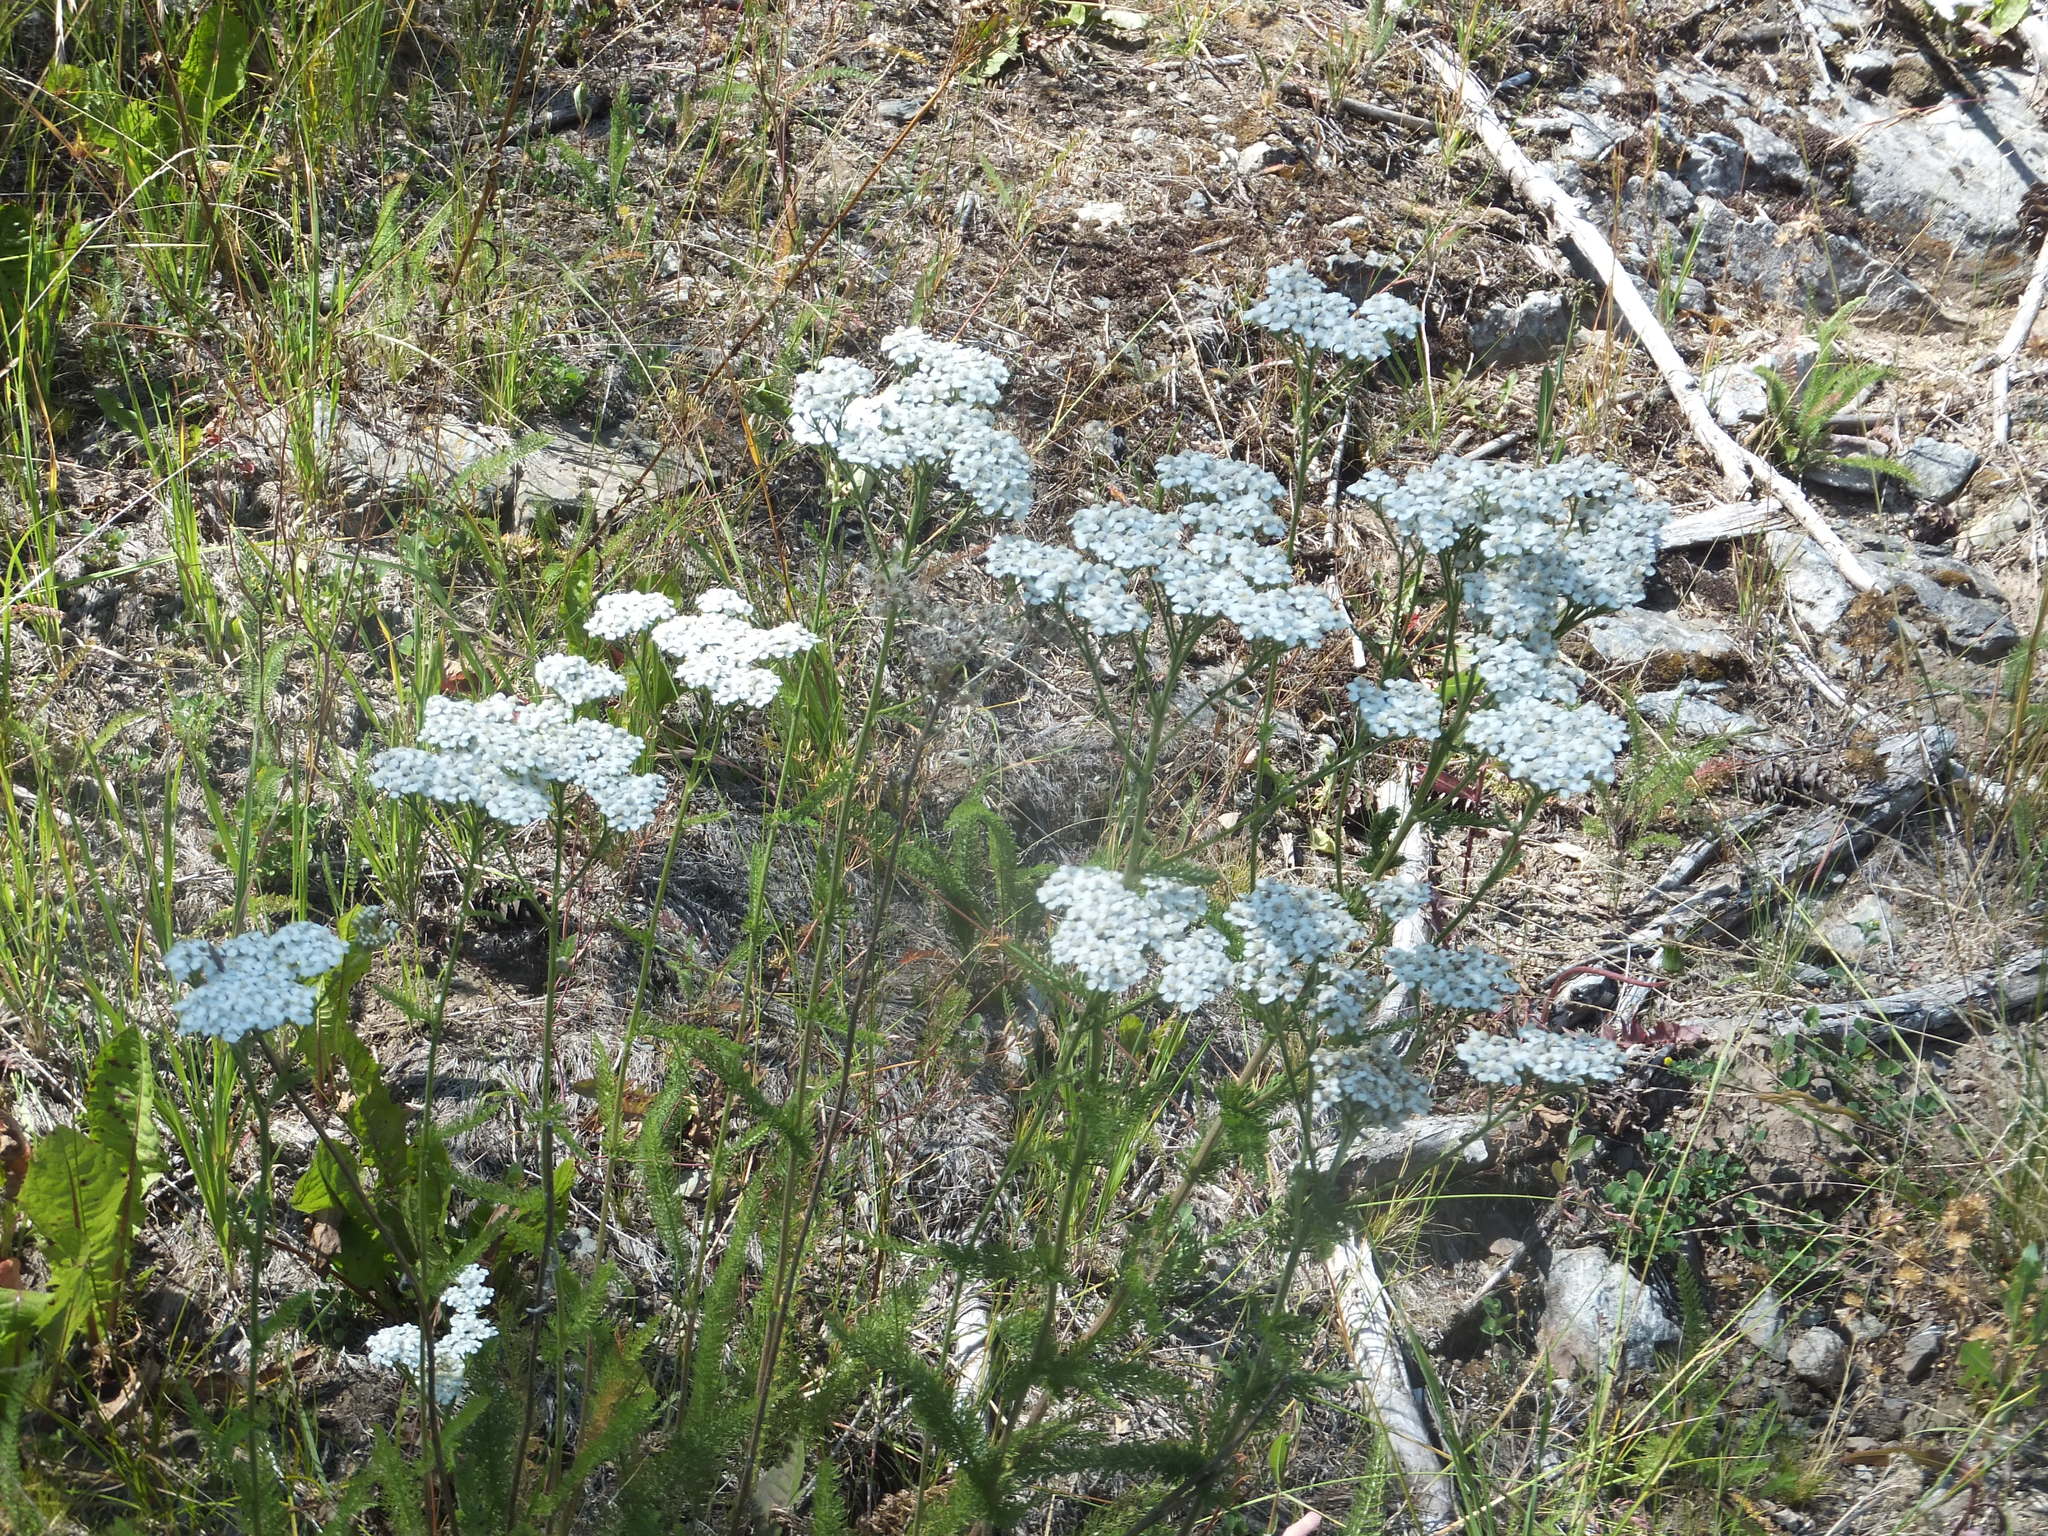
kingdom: Plantae
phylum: Tracheophyta
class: Magnoliopsida
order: Asterales
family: Asteraceae
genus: Achillea
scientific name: Achillea millefolium
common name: Yarrow
